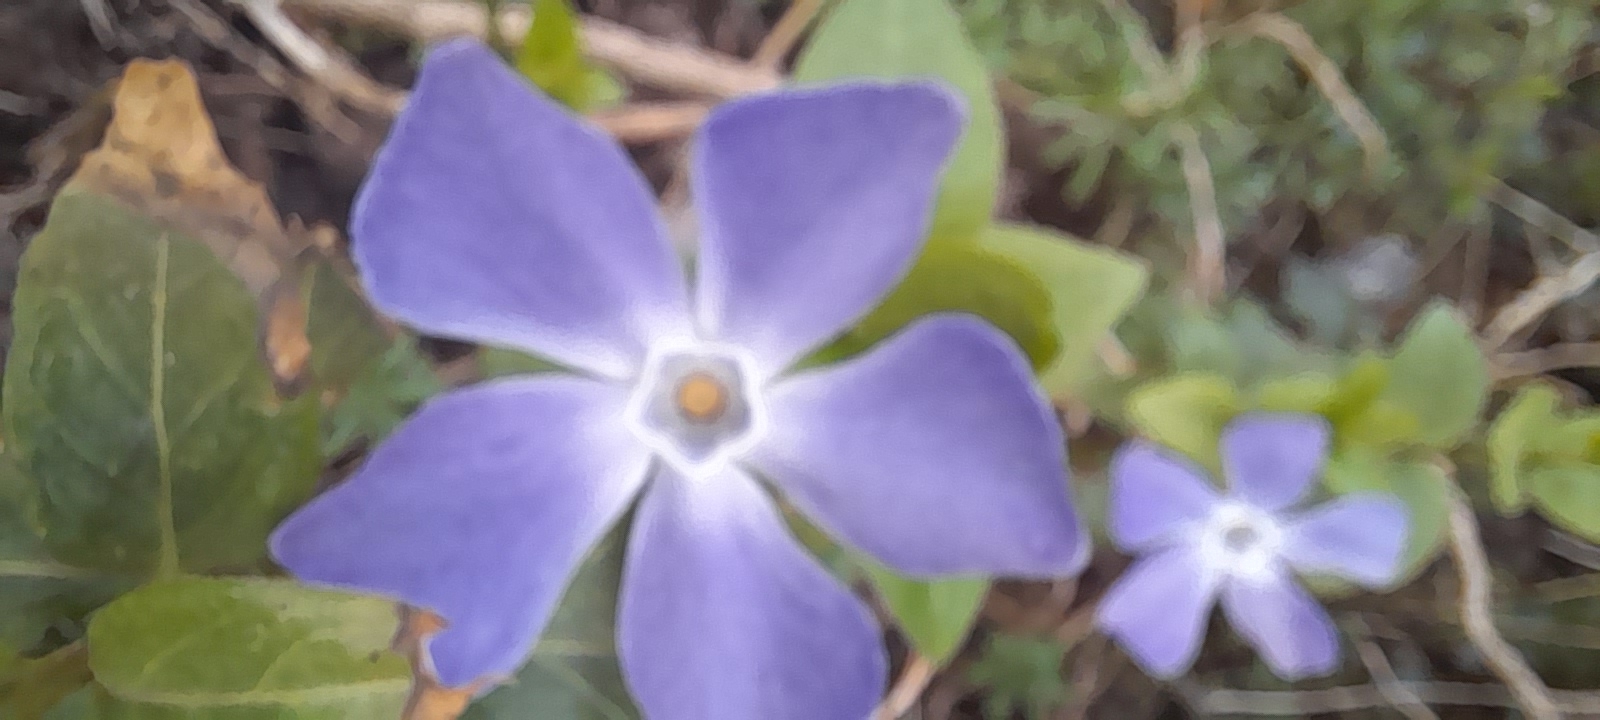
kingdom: Plantae
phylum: Tracheophyta
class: Magnoliopsida
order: Gentianales
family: Apocynaceae
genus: Vinca
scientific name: Vinca major
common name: Greater periwinkle
